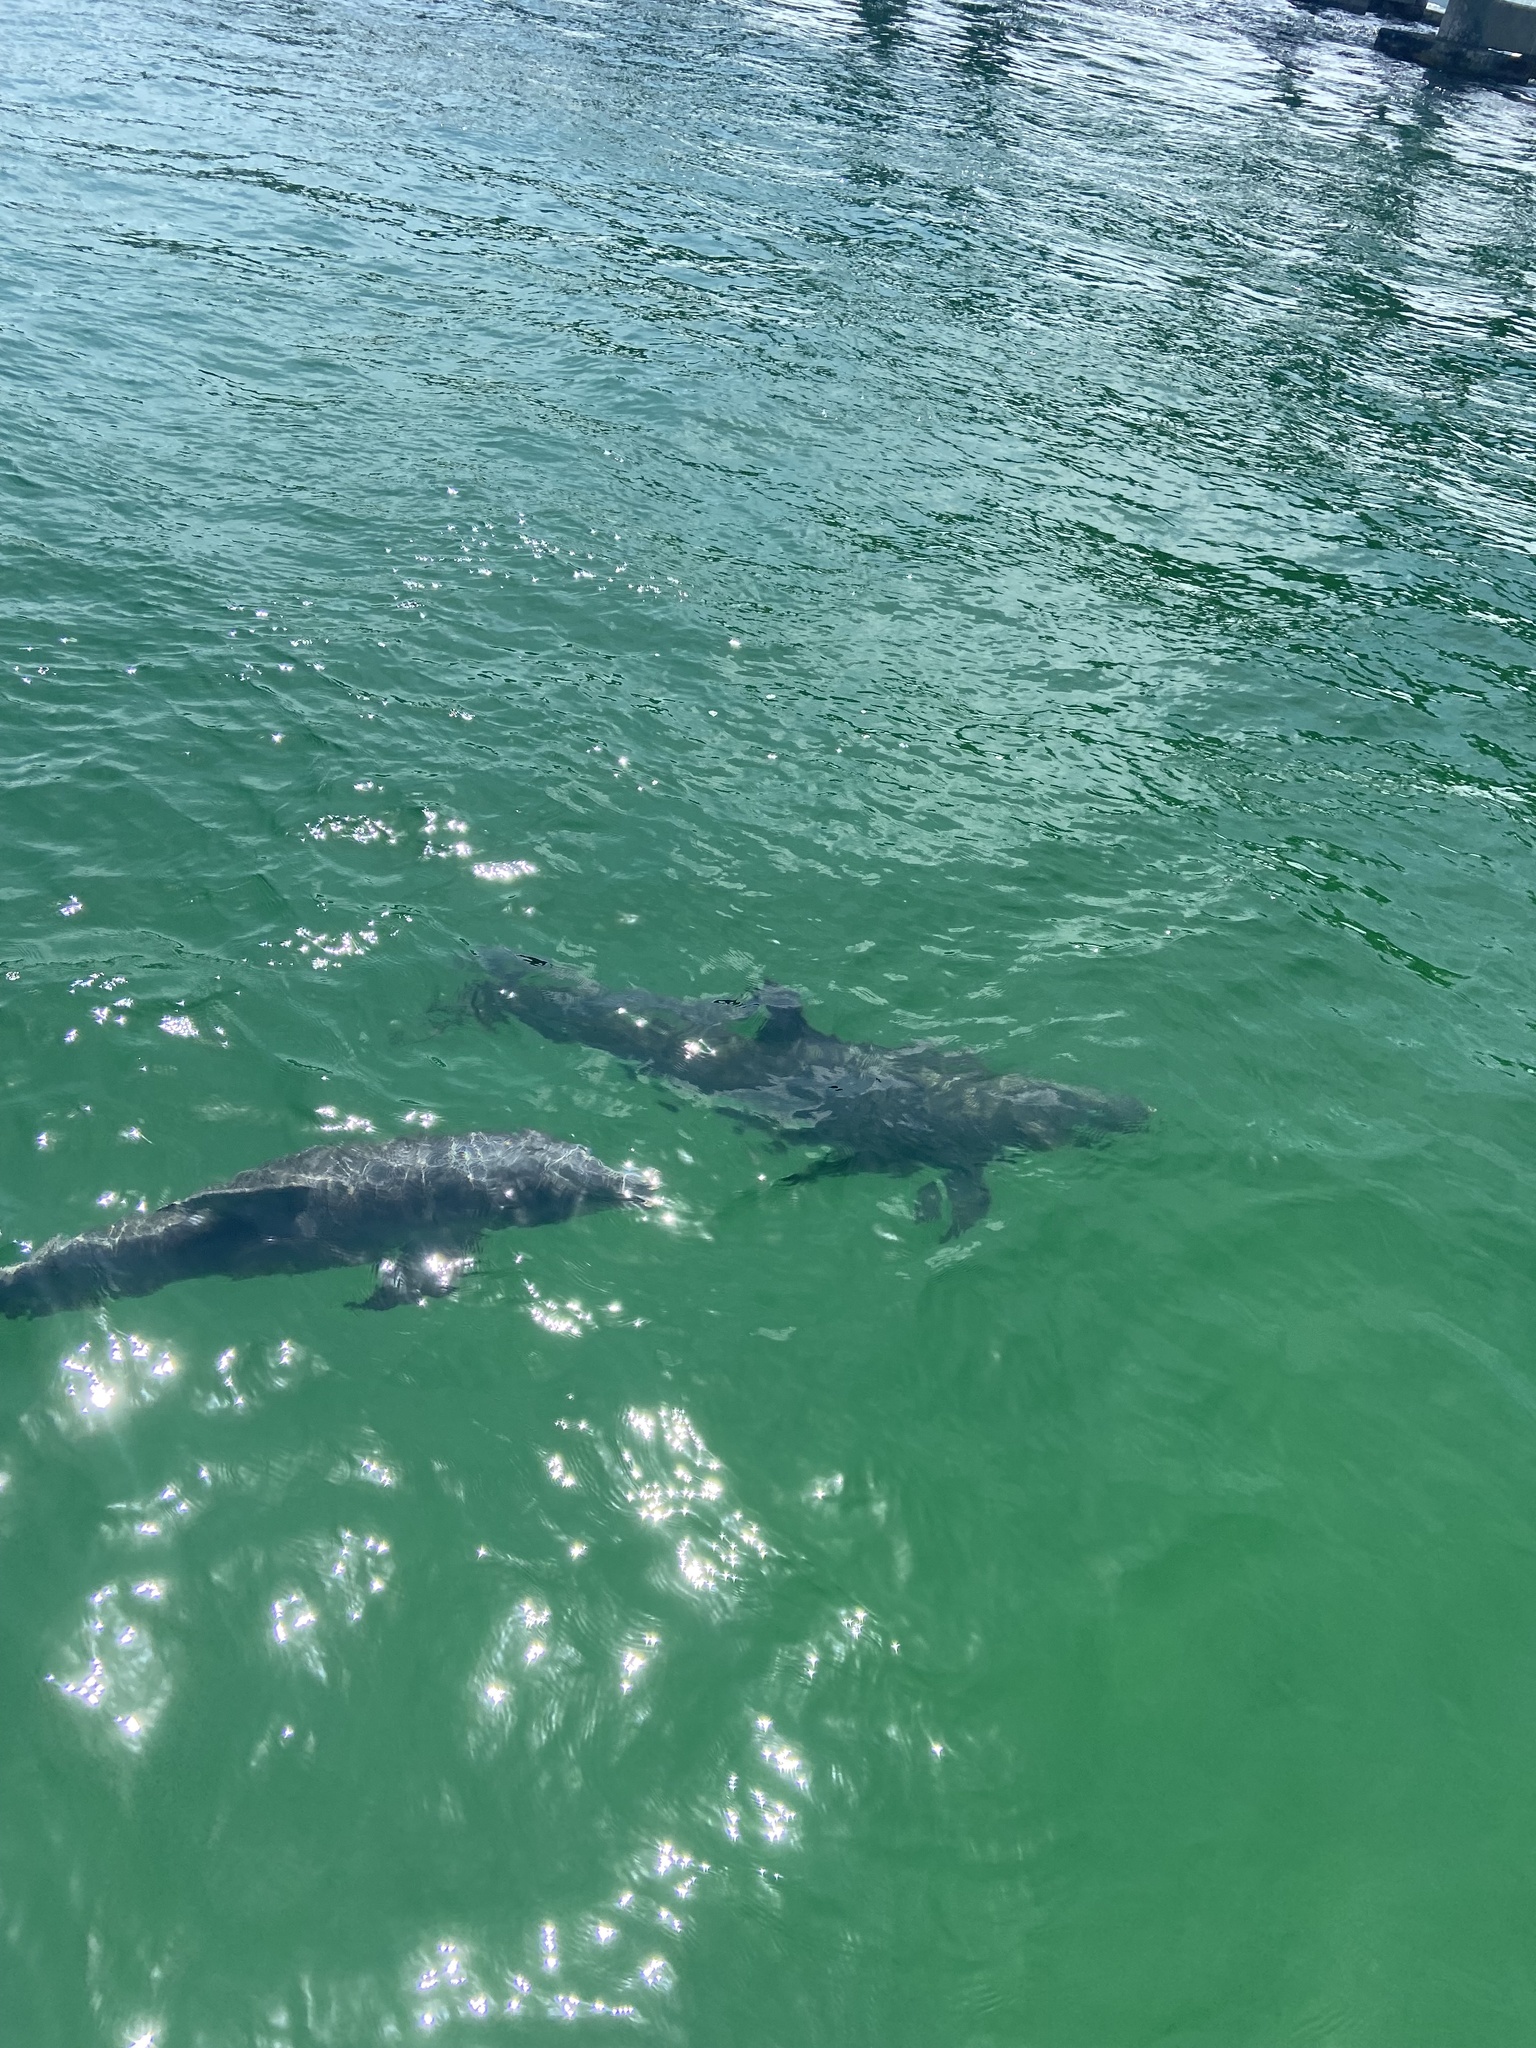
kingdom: Animalia
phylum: Chordata
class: Mammalia
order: Cetacea
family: Delphinidae
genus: Tursiops
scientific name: Tursiops truncatus
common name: Bottlenose dolphin
